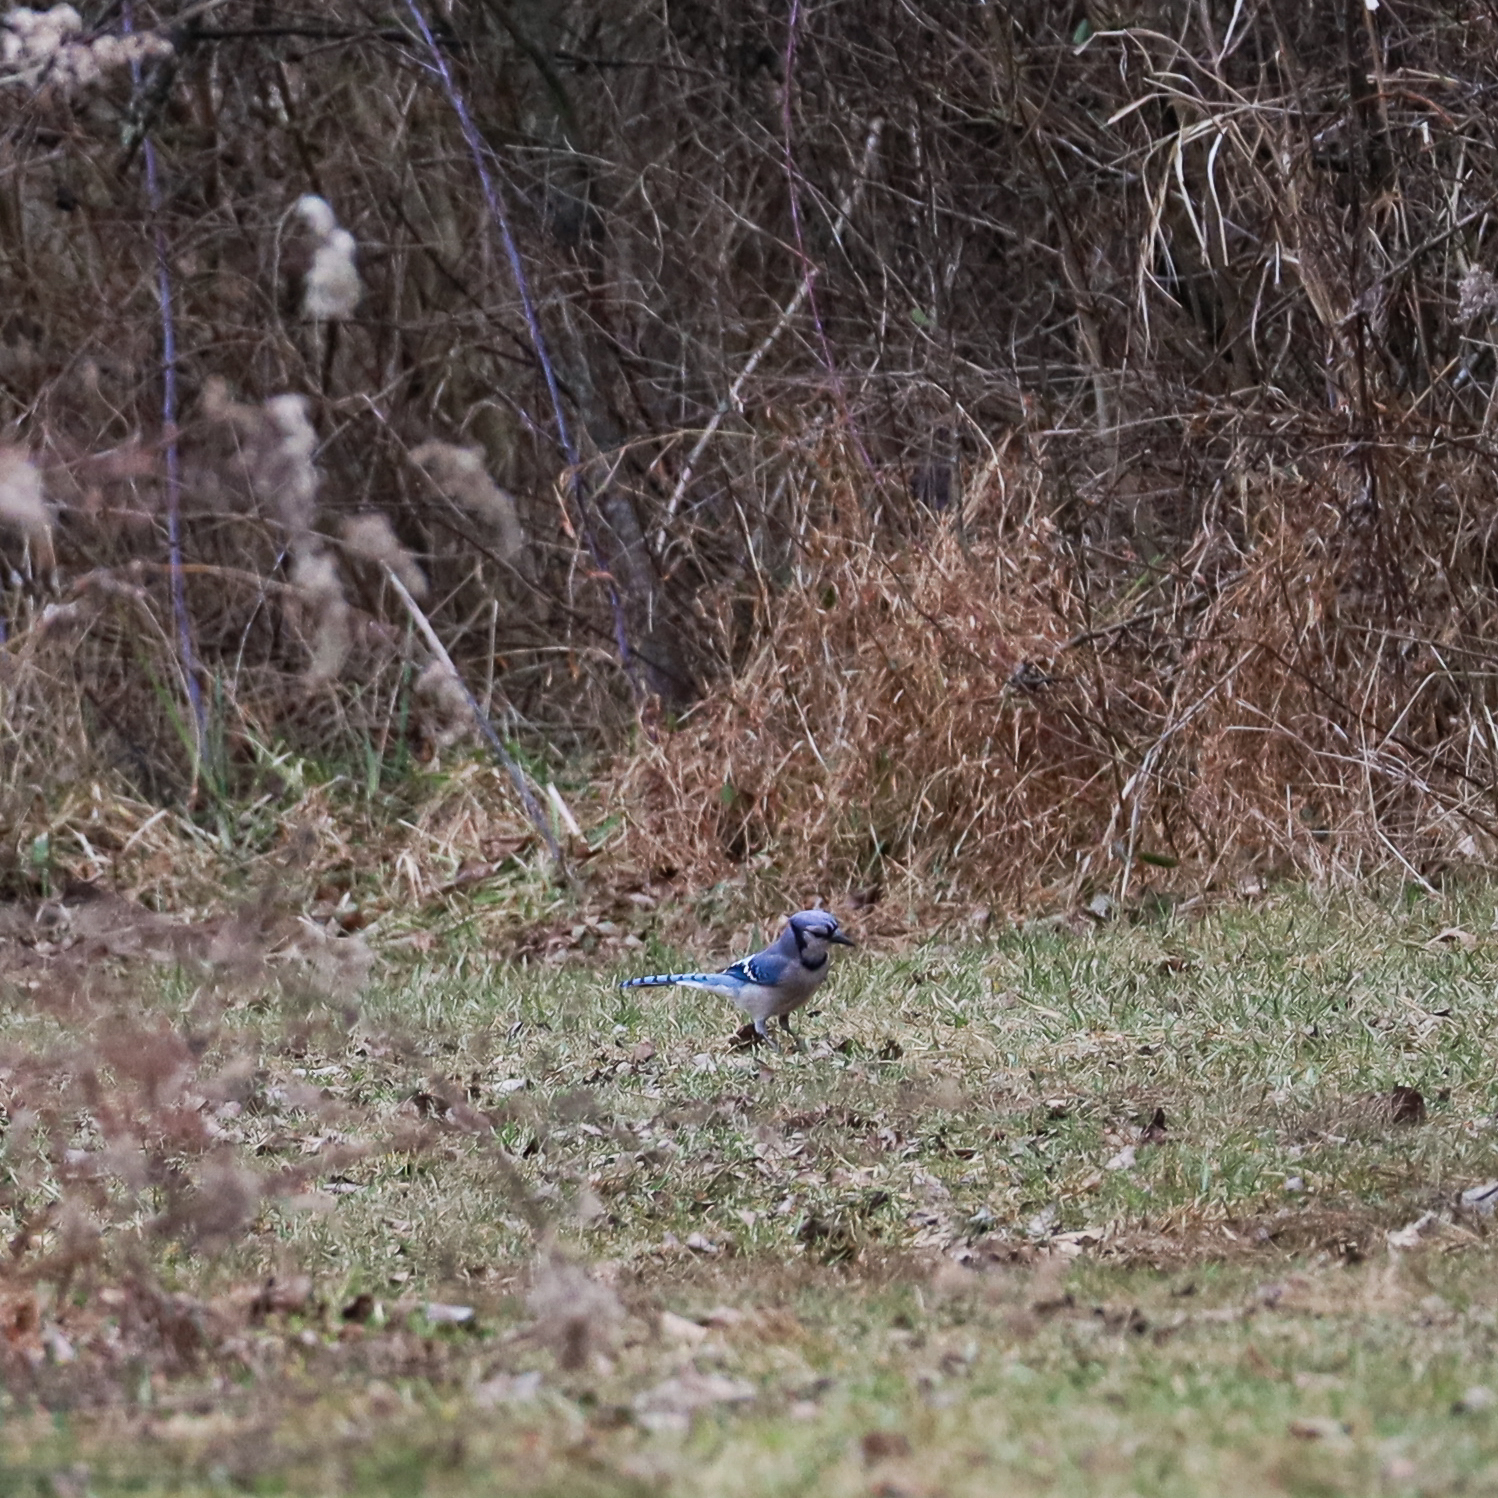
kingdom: Animalia
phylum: Chordata
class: Aves
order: Passeriformes
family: Corvidae
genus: Cyanocitta
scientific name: Cyanocitta cristata
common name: Blue jay
